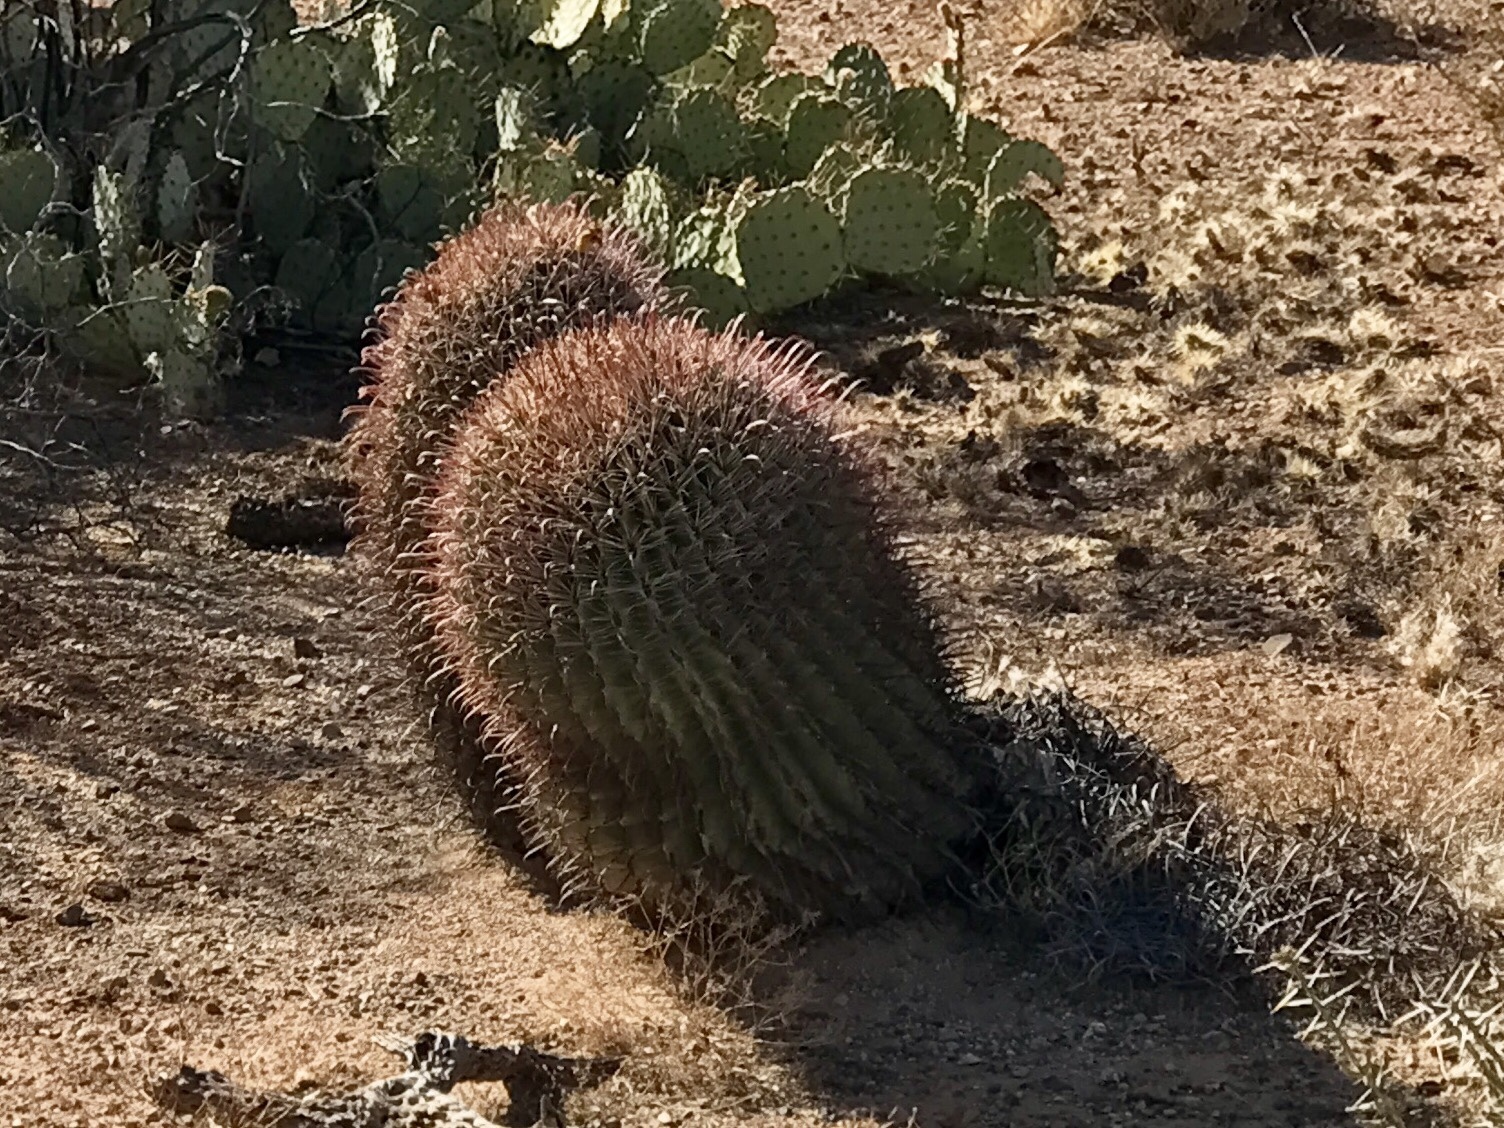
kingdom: Plantae
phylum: Tracheophyta
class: Magnoliopsida
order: Caryophyllales
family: Cactaceae
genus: Ferocactus
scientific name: Ferocactus wislizeni
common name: Candy barrel cactus
